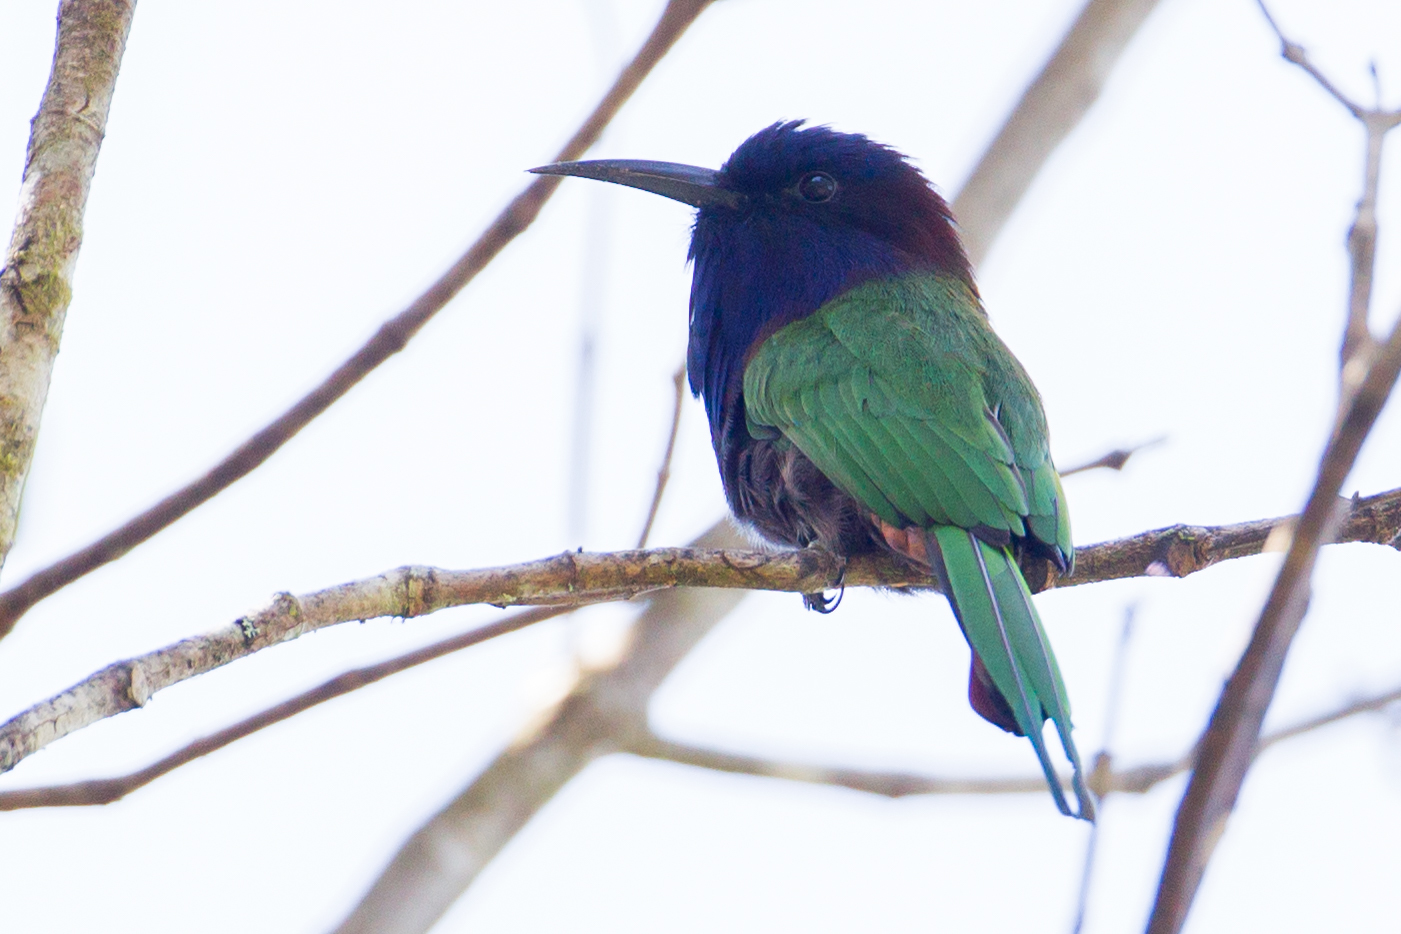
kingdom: Animalia
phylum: Chordata
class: Aves
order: Coraciiformes
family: Meropidae
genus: Meropogon
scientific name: Meropogon forsteni
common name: Purple-bearded bee-eater
